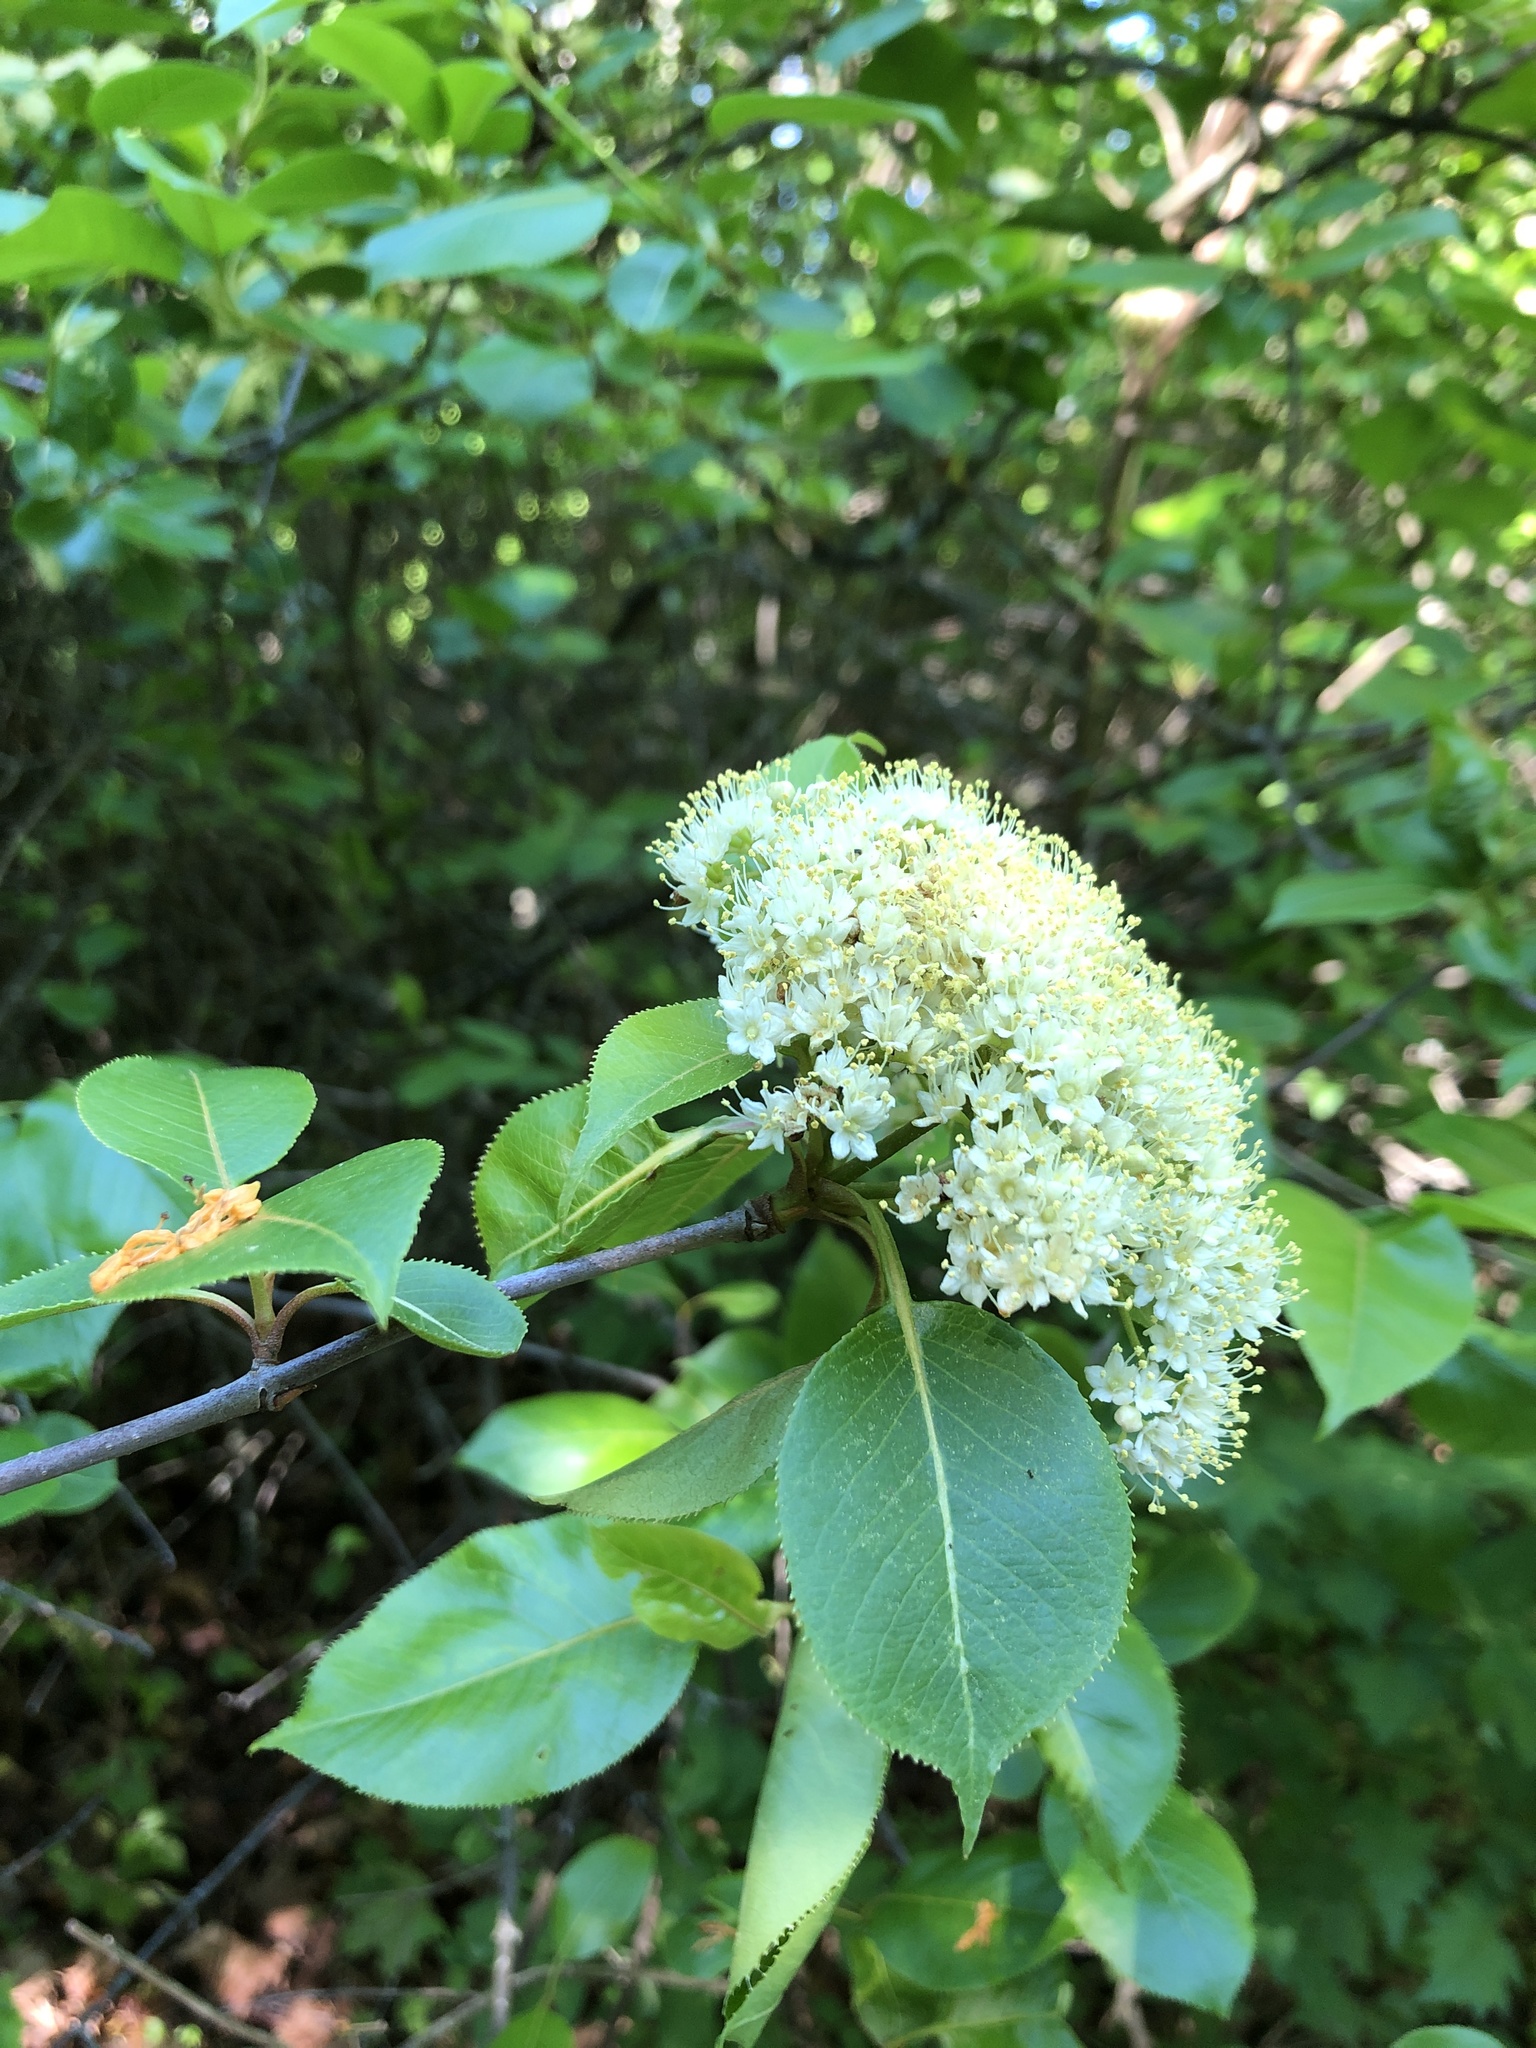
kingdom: Plantae
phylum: Tracheophyta
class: Magnoliopsida
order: Dipsacales
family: Viburnaceae
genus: Viburnum
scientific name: Viburnum lentago
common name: Black haw
